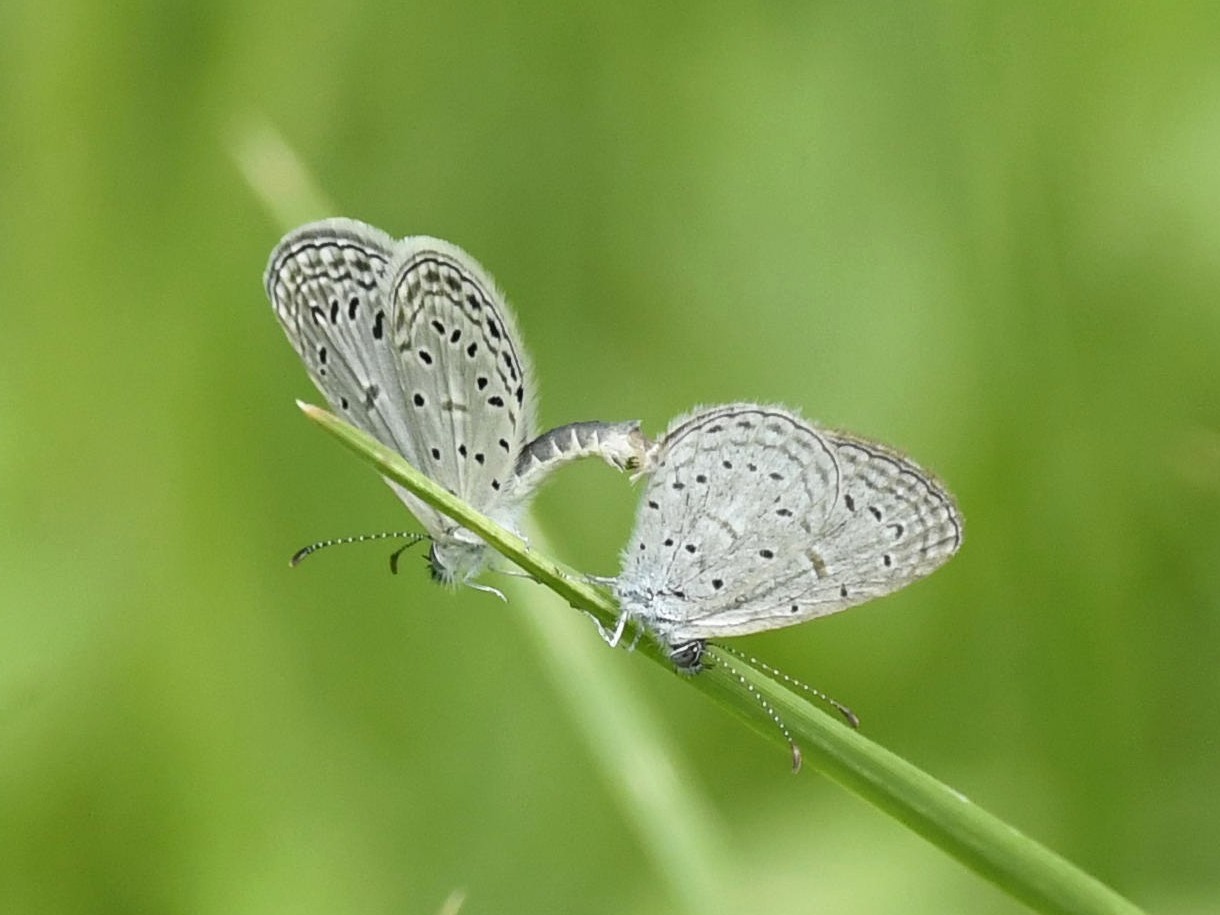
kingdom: Animalia
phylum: Arthropoda
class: Insecta
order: Lepidoptera
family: Lycaenidae
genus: Zizula
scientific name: Zizula hylax
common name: Gaika blue
